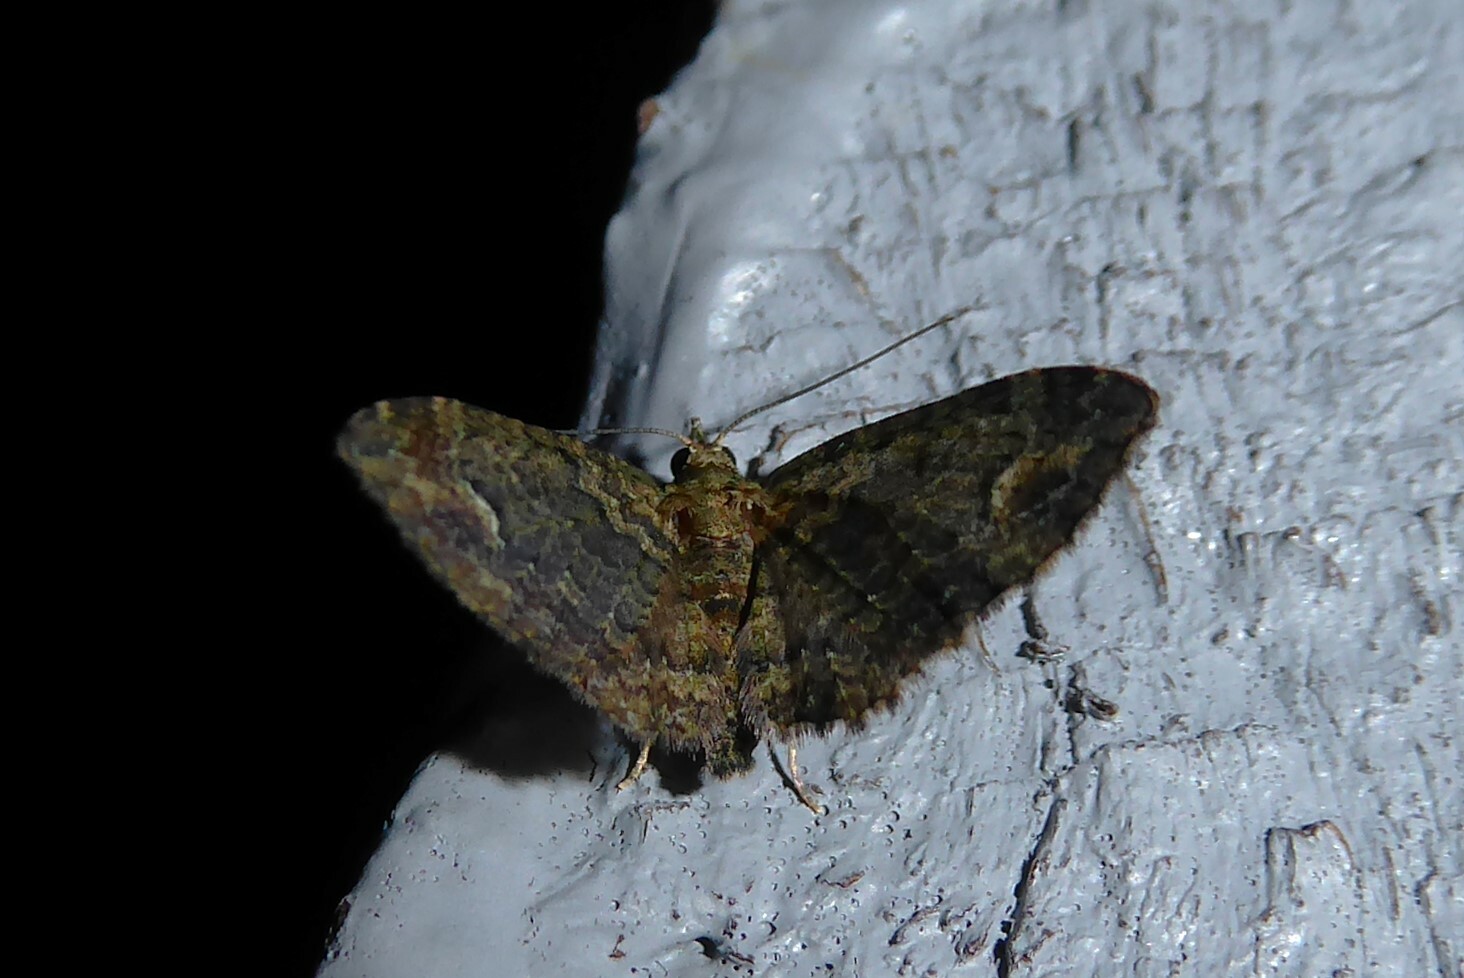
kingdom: Animalia
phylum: Arthropoda
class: Insecta
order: Lepidoptera
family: Geometridae
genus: Pasiphilodes
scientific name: Pasiphilodes testulata
